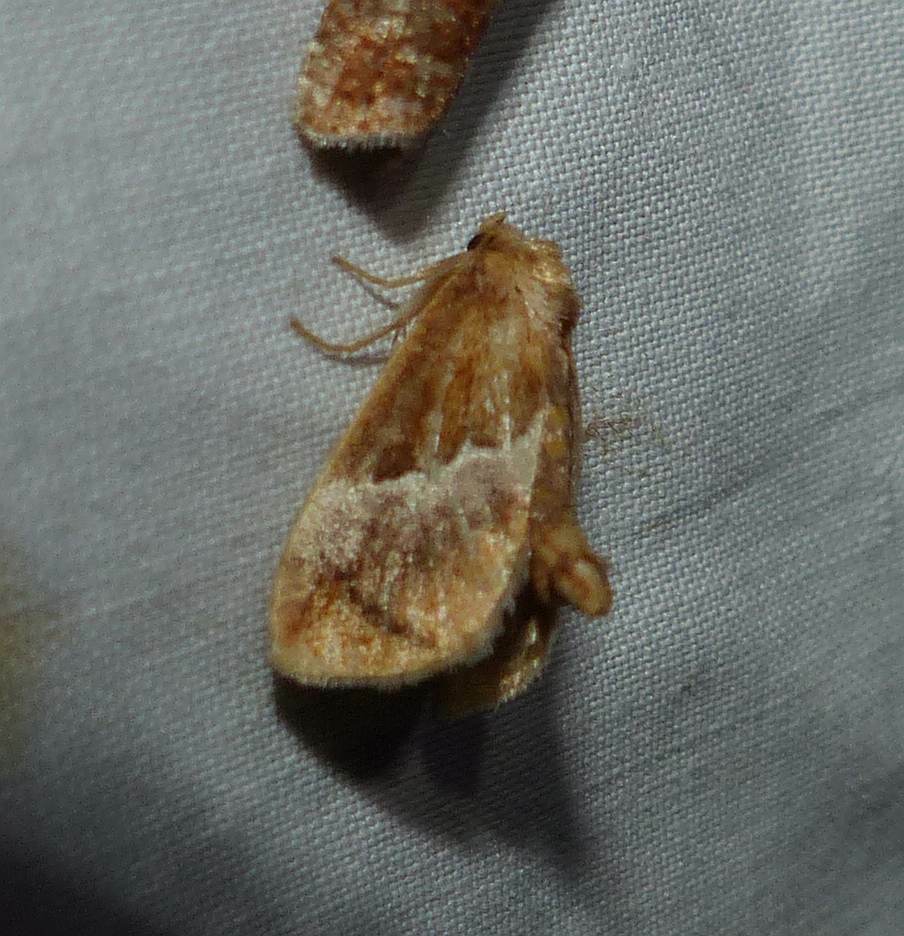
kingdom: Animalia
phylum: Arthropoda
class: Insecta
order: Lepidoptera
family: Limacodidae
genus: Lithacodes
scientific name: Lithacodes fasciola
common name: Yellow-shouldered slug moth
